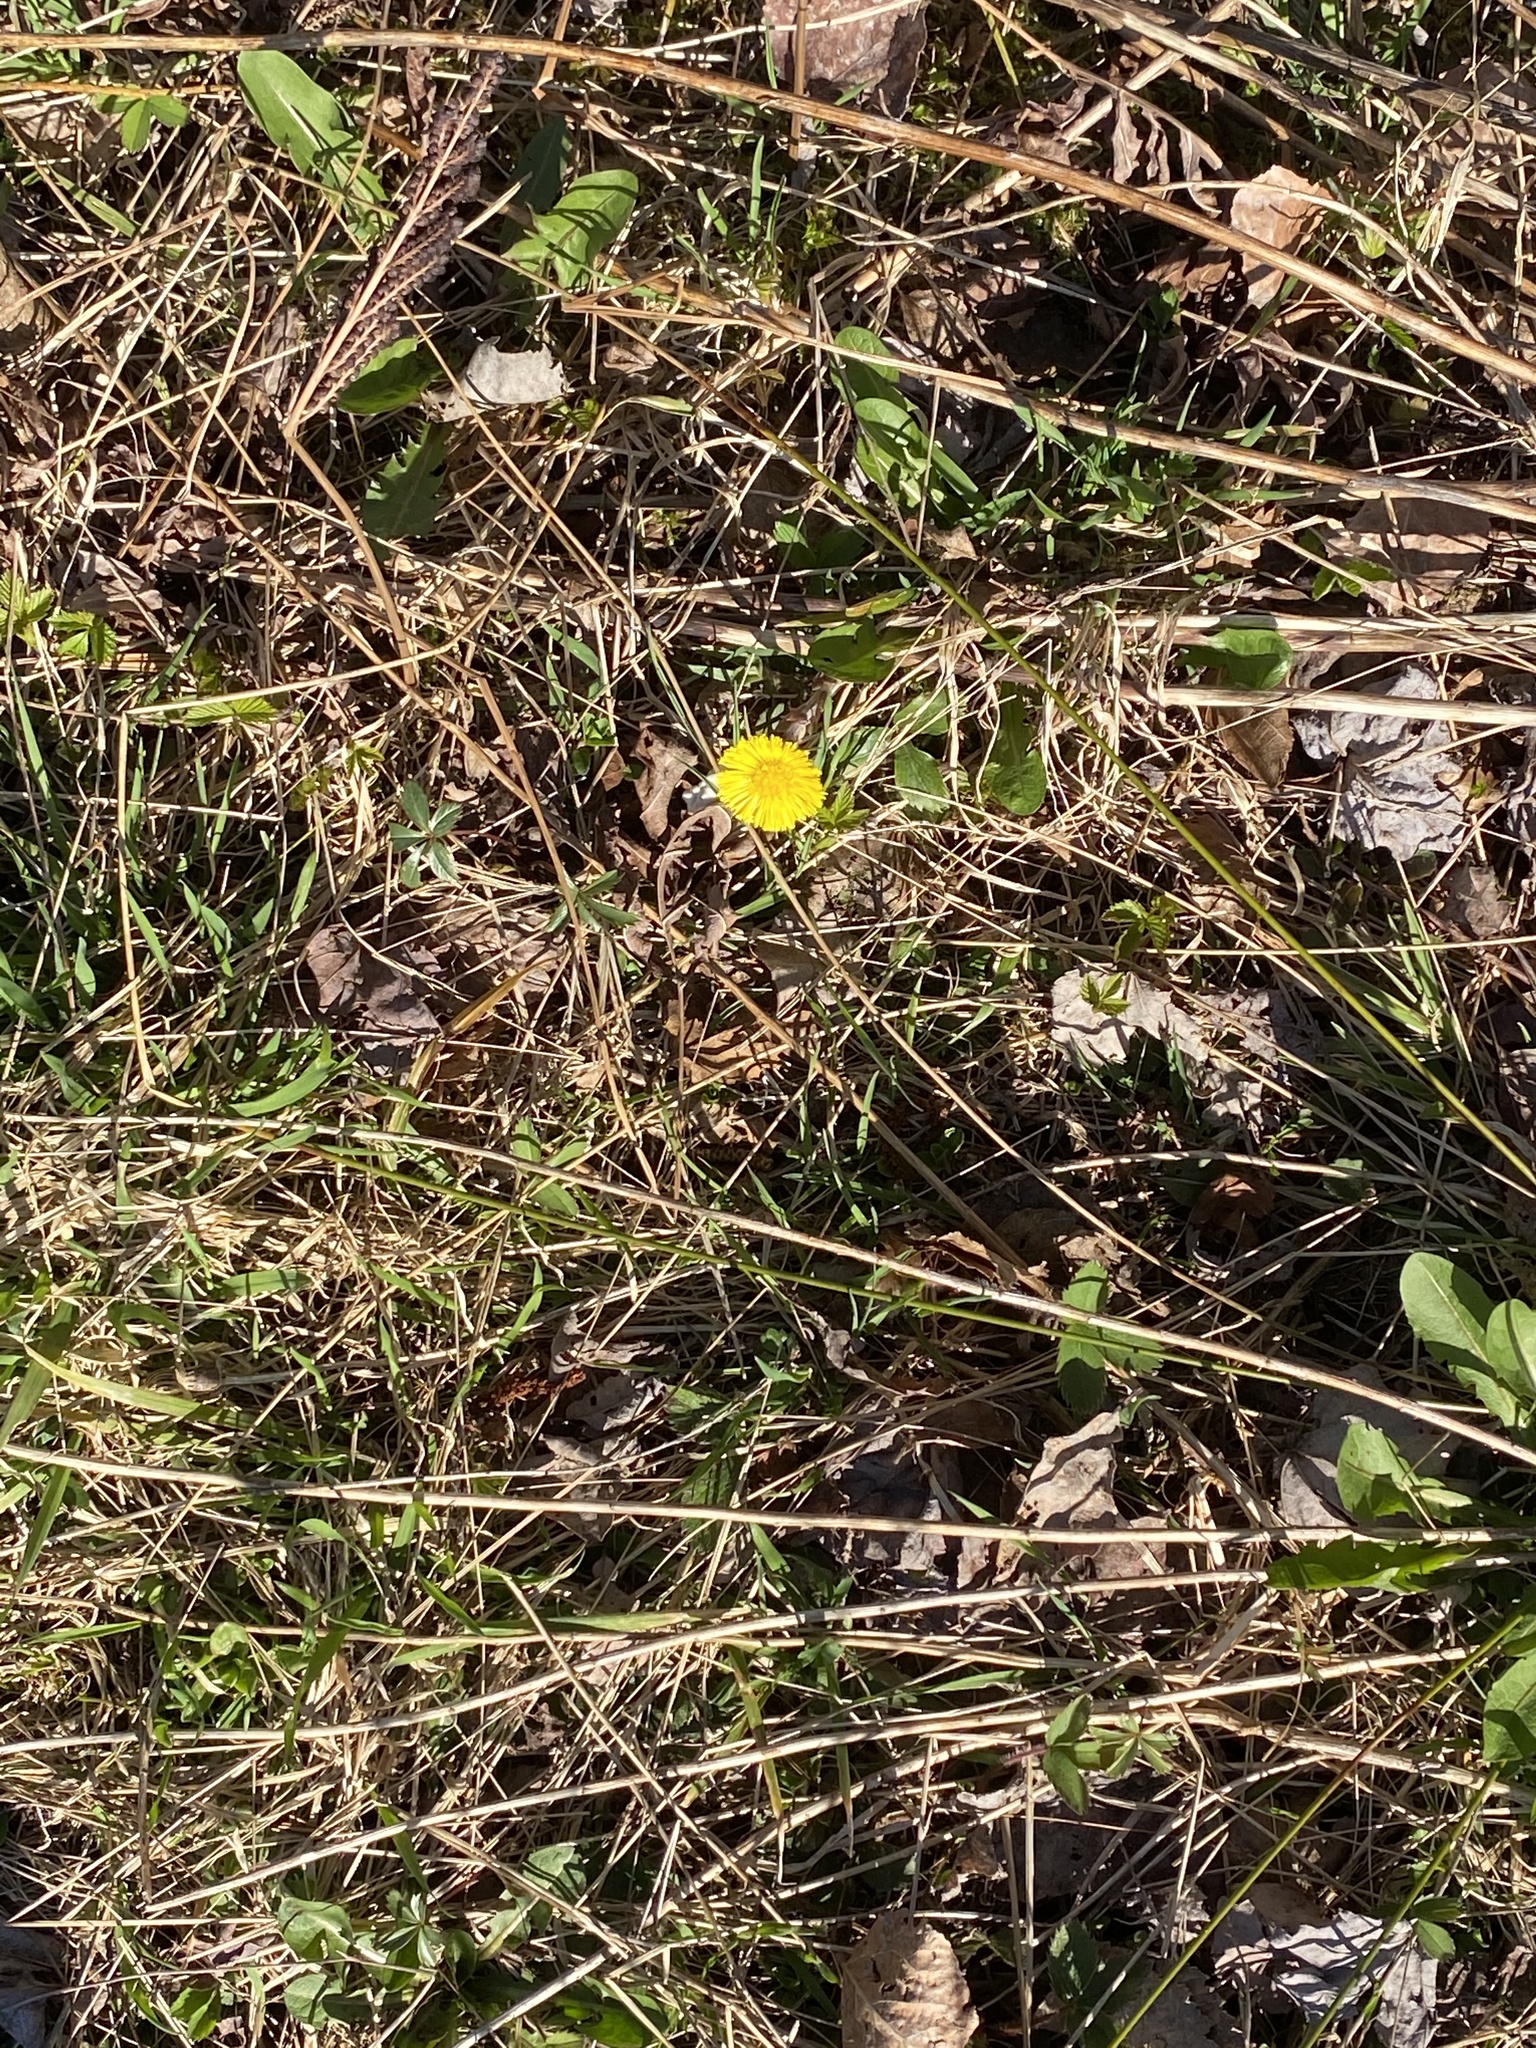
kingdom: Plantae
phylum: Tracheophyta
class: Magnoliopsida
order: Asterales
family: Asteraceae
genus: Tussilago
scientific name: Tussilago farfara
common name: Coltsfoot
